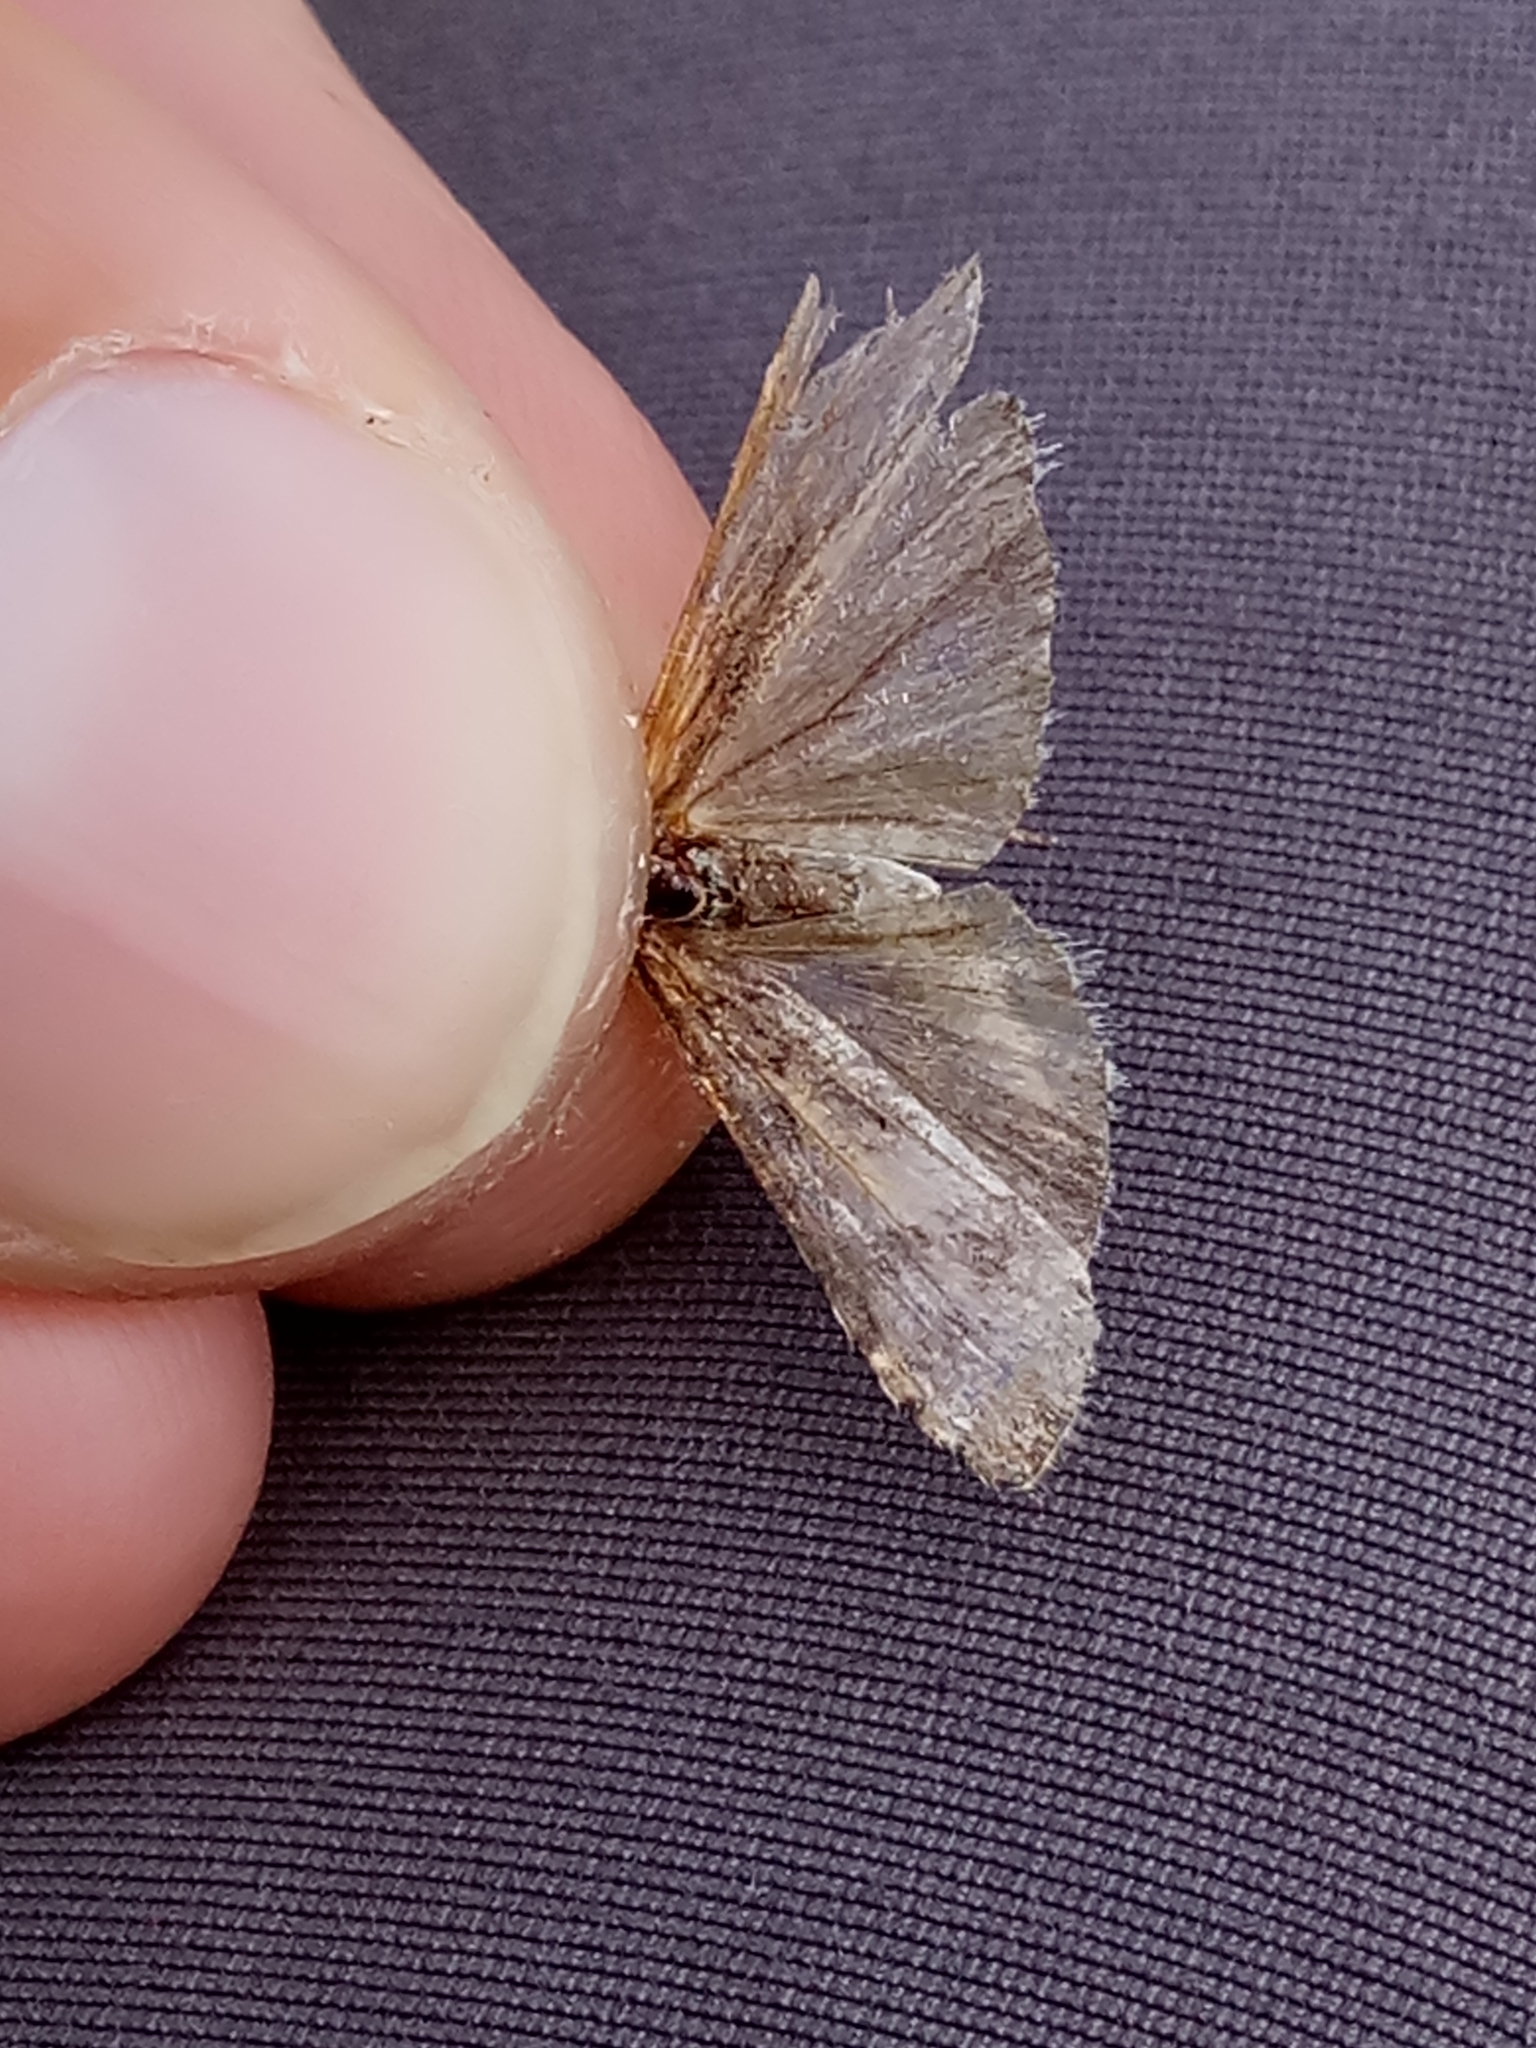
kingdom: Animalia
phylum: Arthropoda
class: Insecta
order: Lepidoptera
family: Crambidae
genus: Nomophila
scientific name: Nomophila noctuella
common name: Rush veneer
